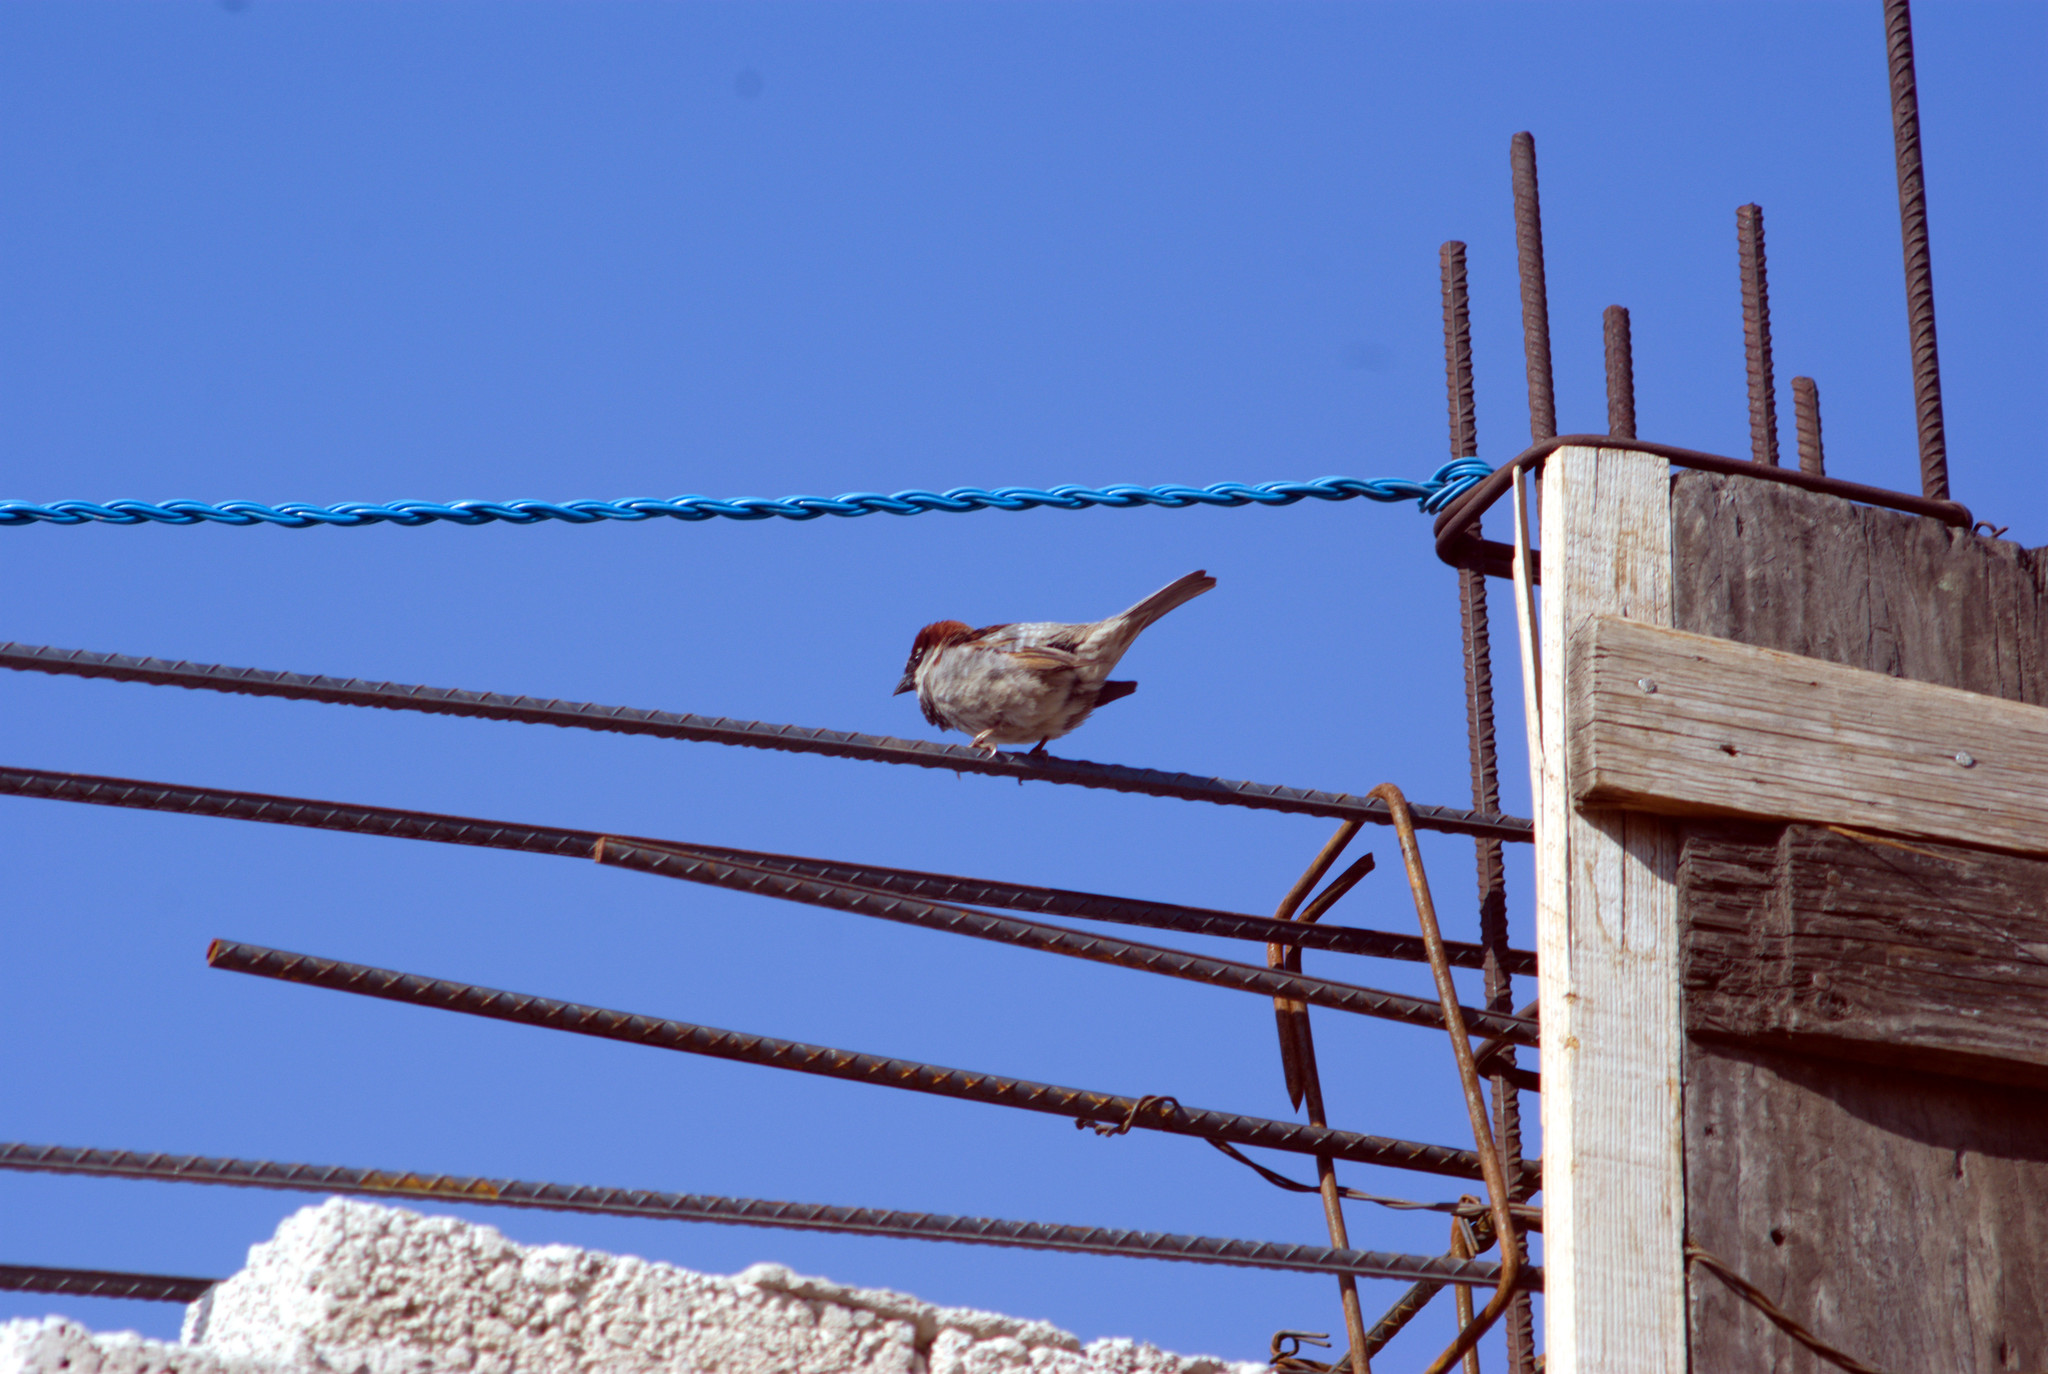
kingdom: Animalia
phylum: Chordata
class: Aves
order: Passeriformes
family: Passeridae
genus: Passer
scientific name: Passer domesticus
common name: House sparrow
